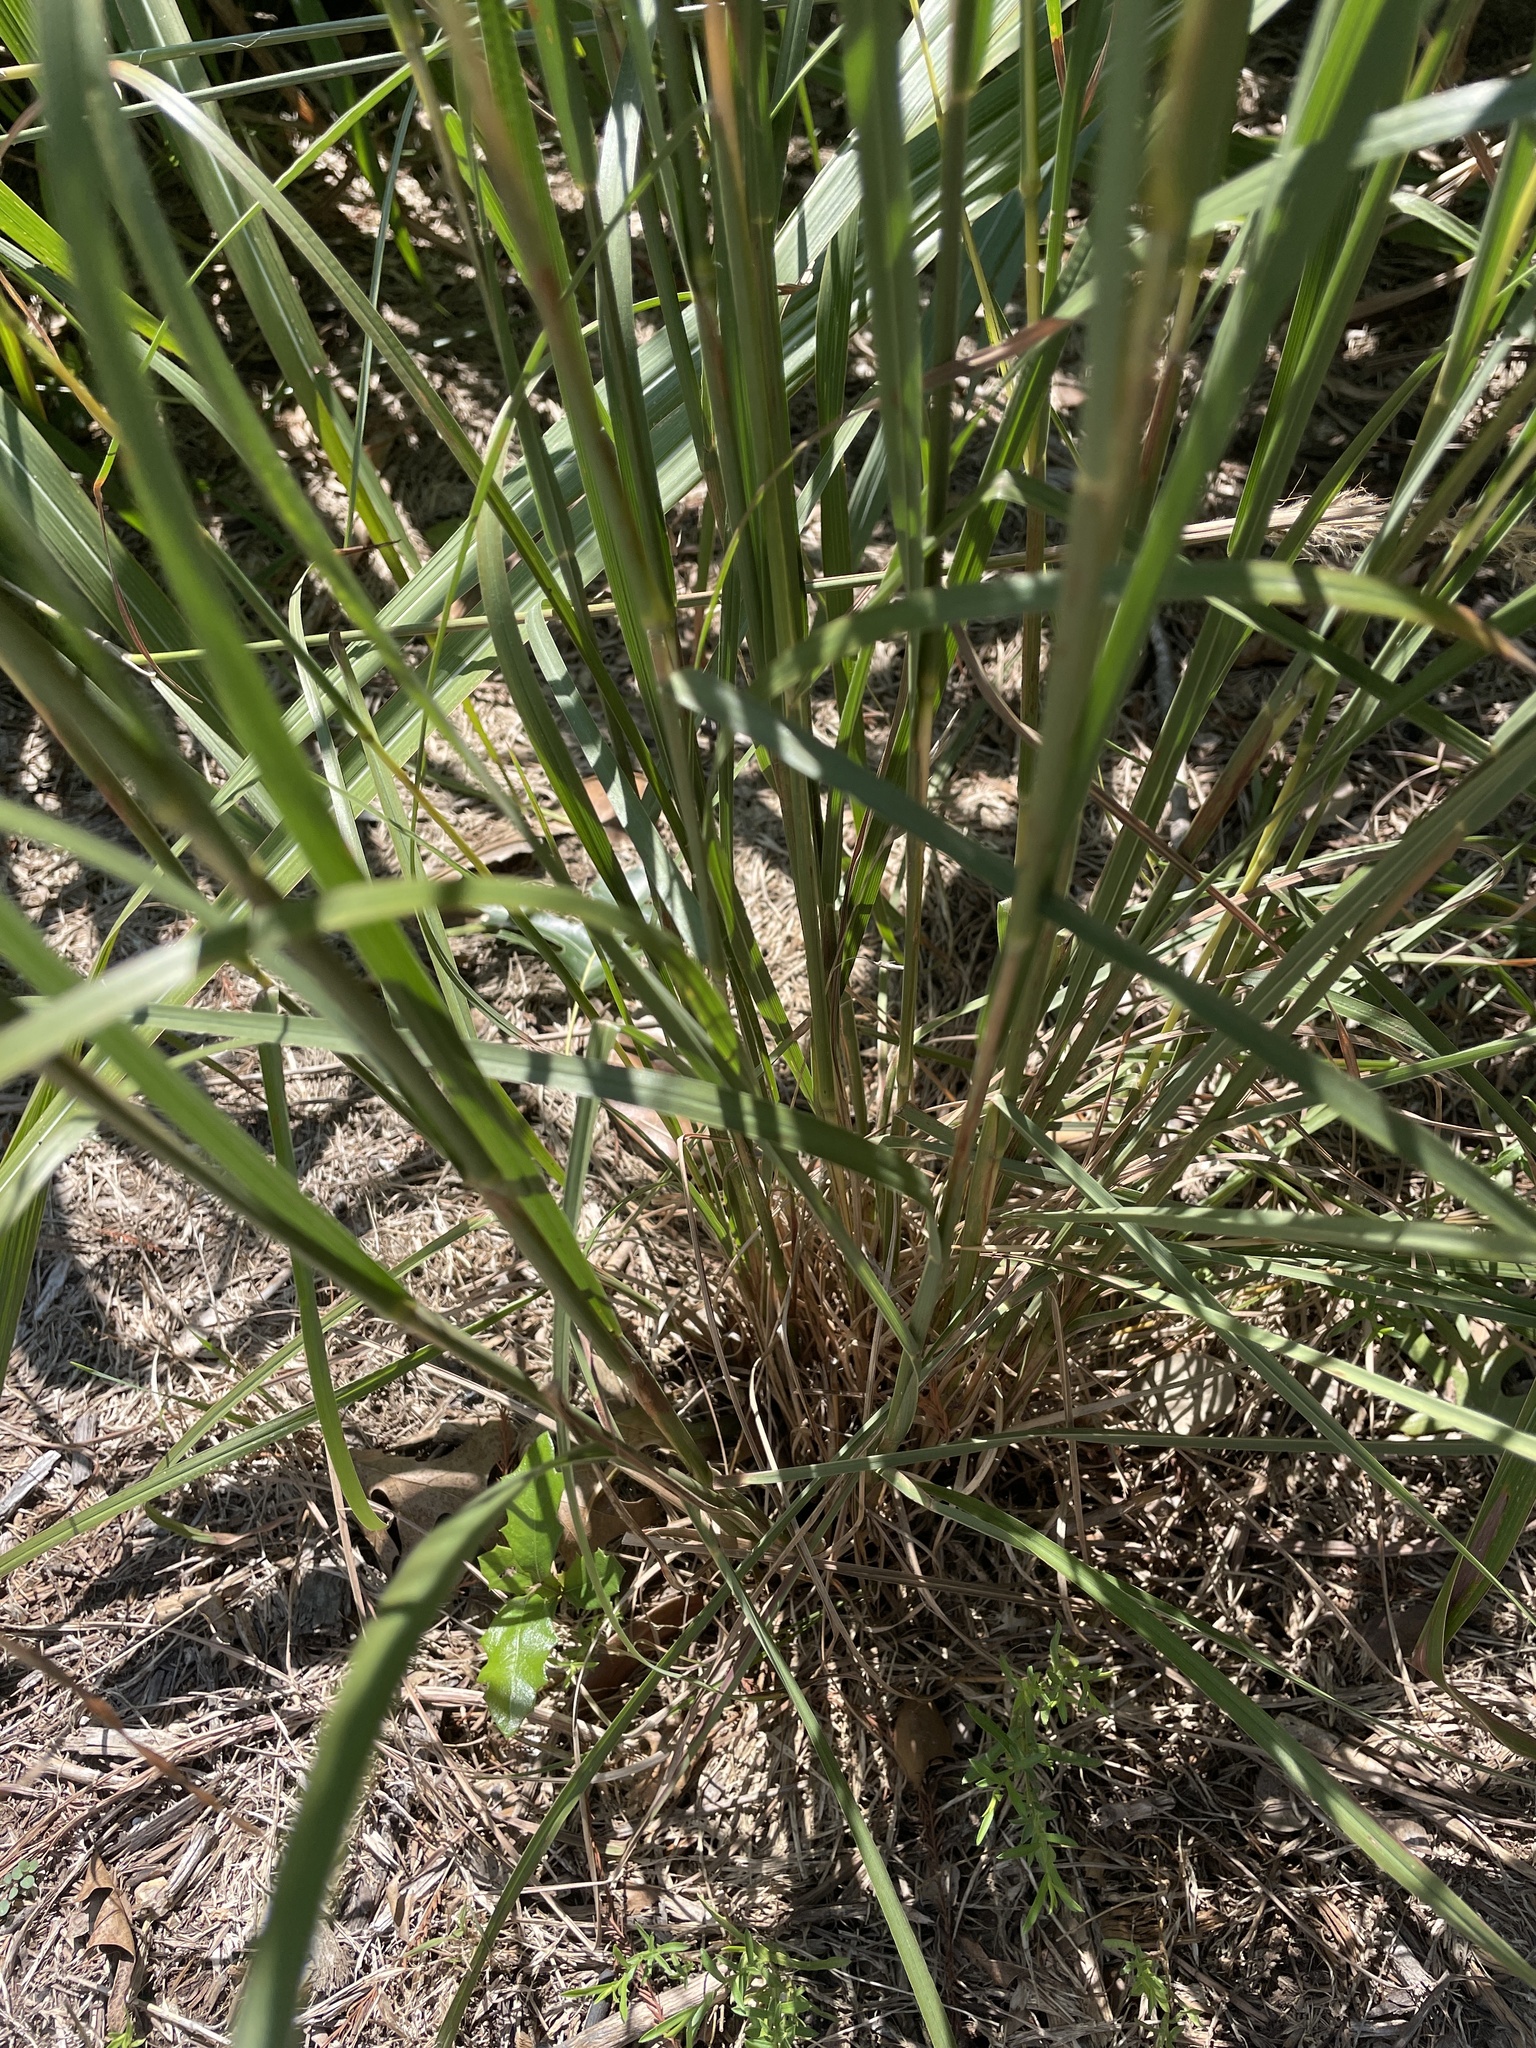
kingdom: Plantae
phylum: Tracheophyta
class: Liliopsida
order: Poales
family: Poaceae
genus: Schizachyrium
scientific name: Schizachyrium scoparium
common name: Little bluestem
